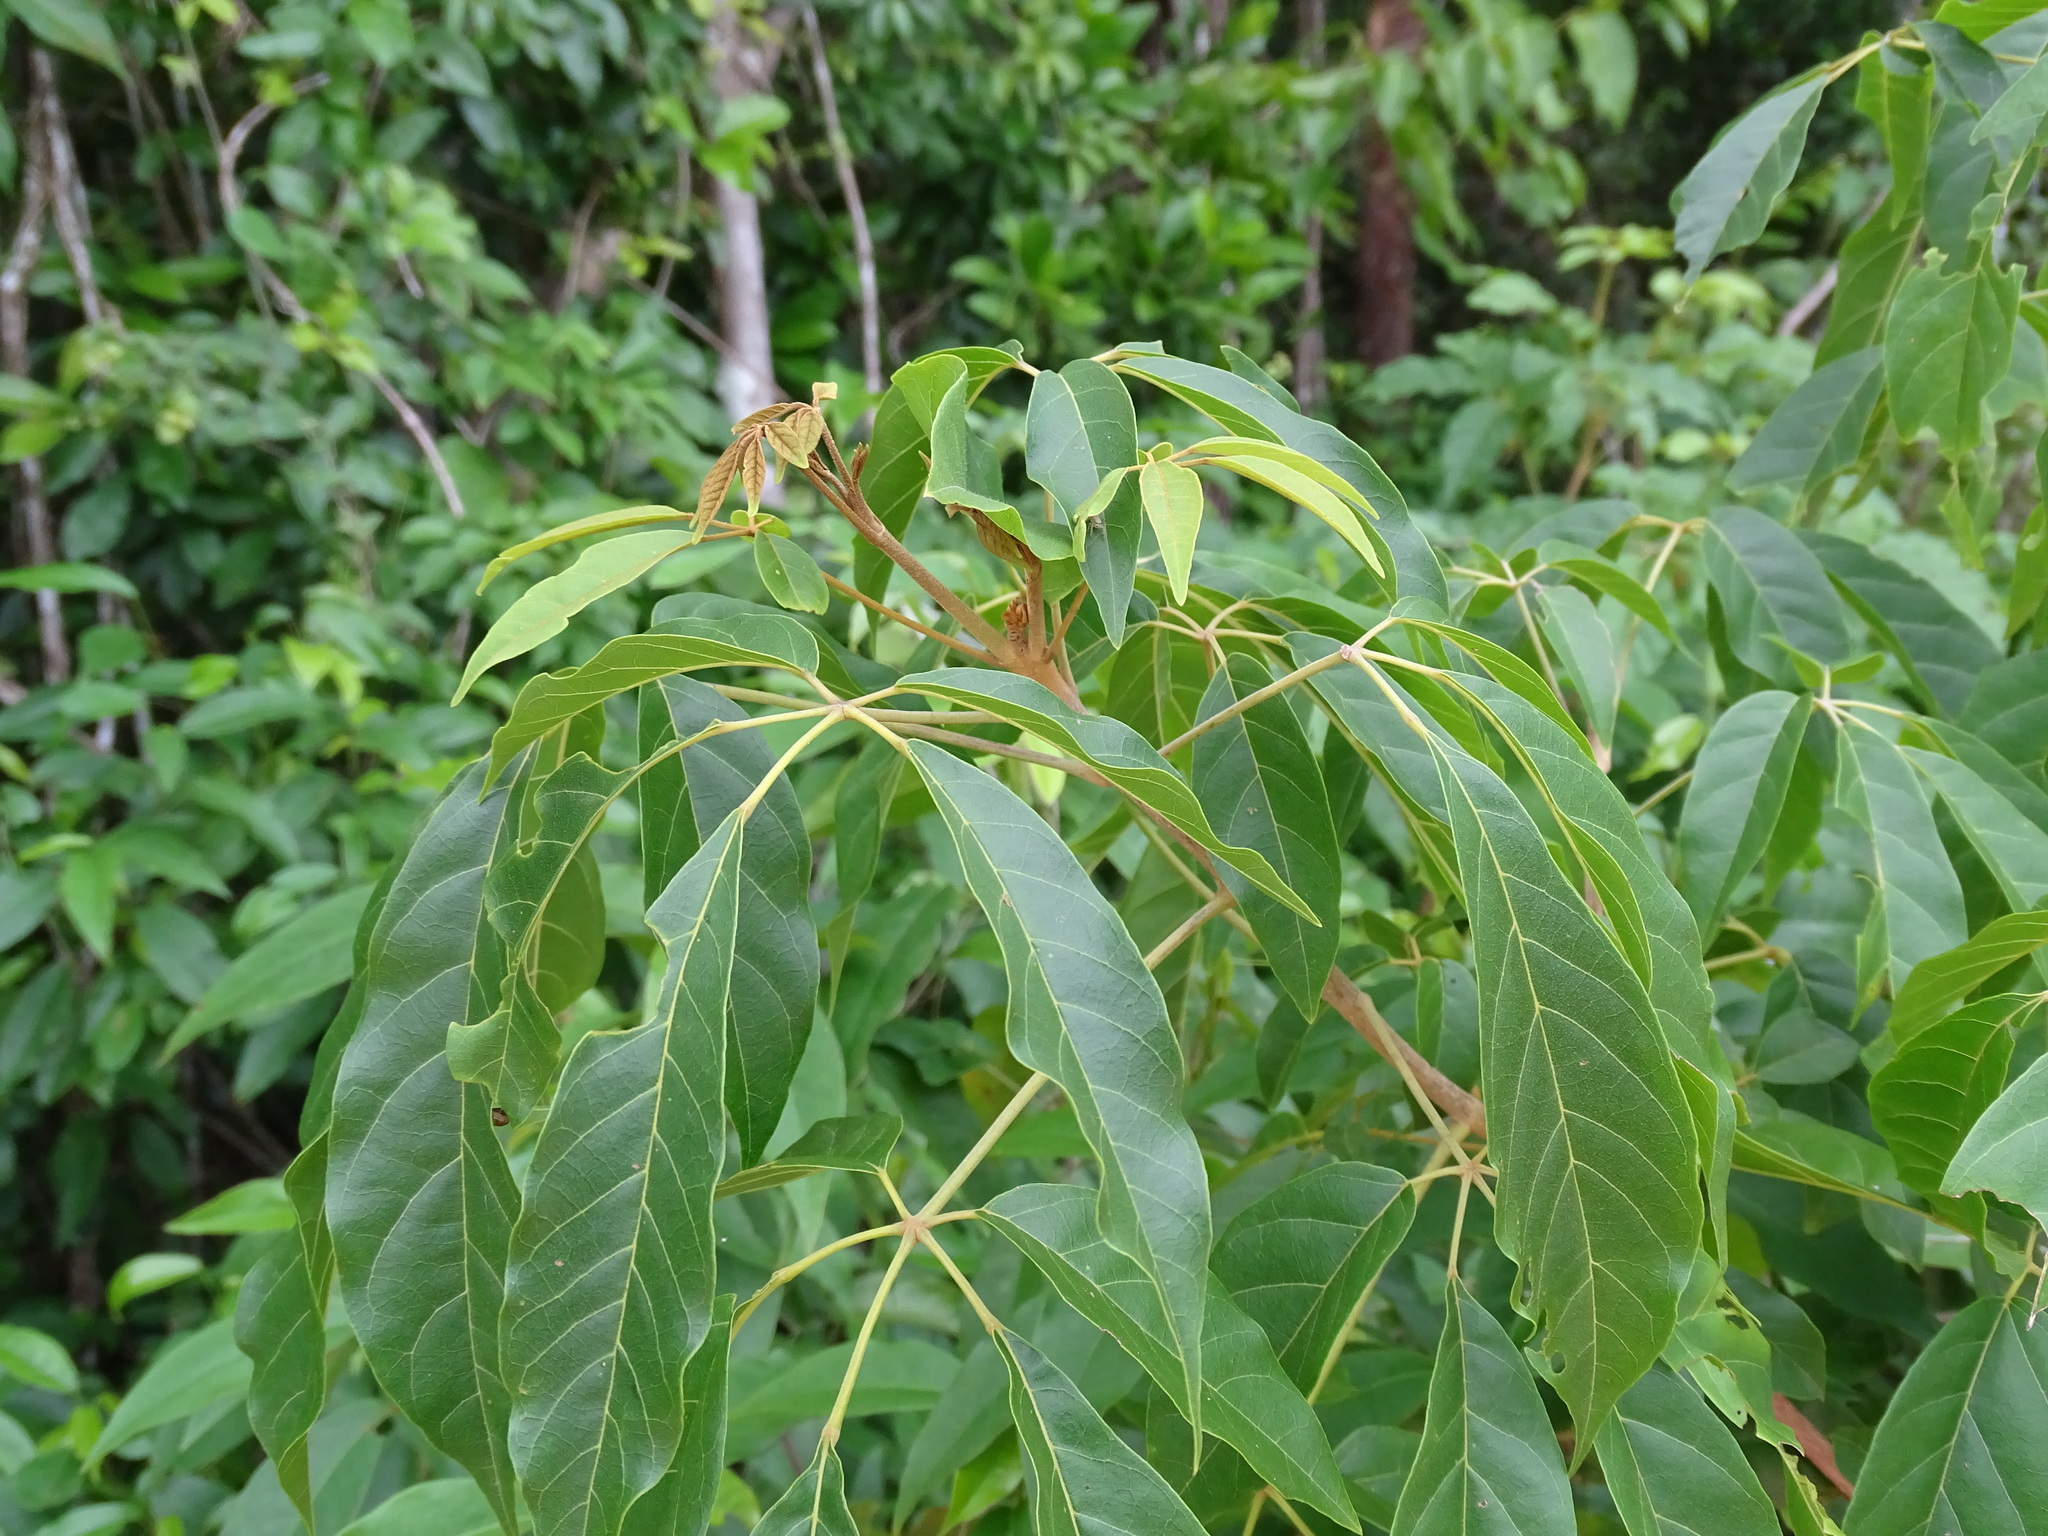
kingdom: Plantae
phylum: Tracheophyta
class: Magnoliopsida
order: Lamiales
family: Bignoniaceae
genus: Handroanthus
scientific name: Handroanthus chrysanthus
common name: Trumpet trees
